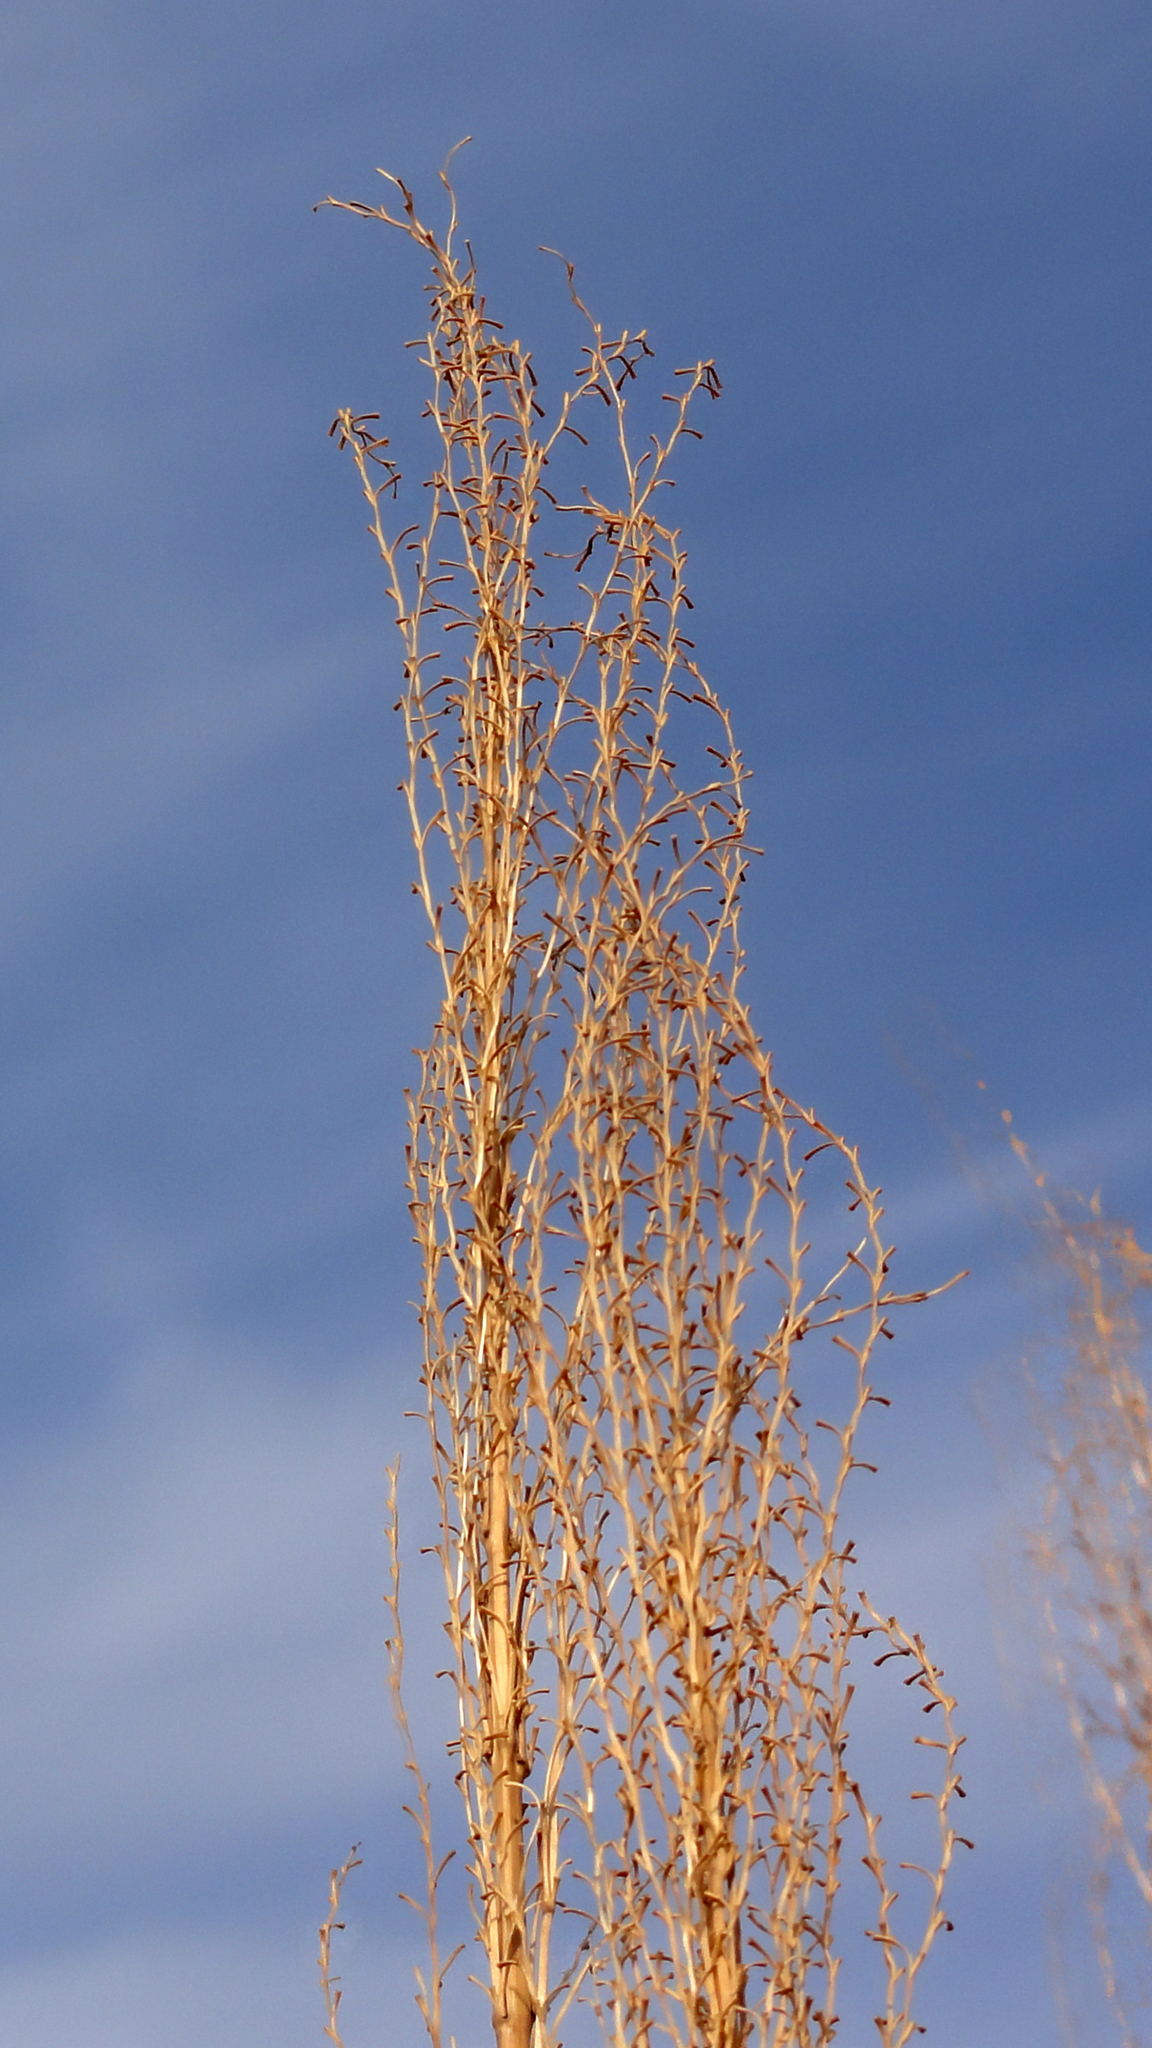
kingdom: Plantae
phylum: Tracheophyta
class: Liliopsida
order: Poales
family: Poaceae
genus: Miscanthus
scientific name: Miscanthus sinensis
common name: Chinese silvergrass
